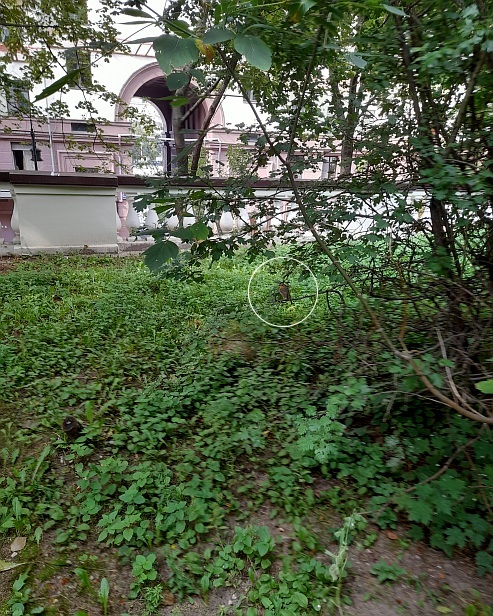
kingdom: Animalia
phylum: Chordata
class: Aves
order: Passeriformes
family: Muscicapidae
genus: Erithacus
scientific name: Erithacus rubecula
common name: European robin
